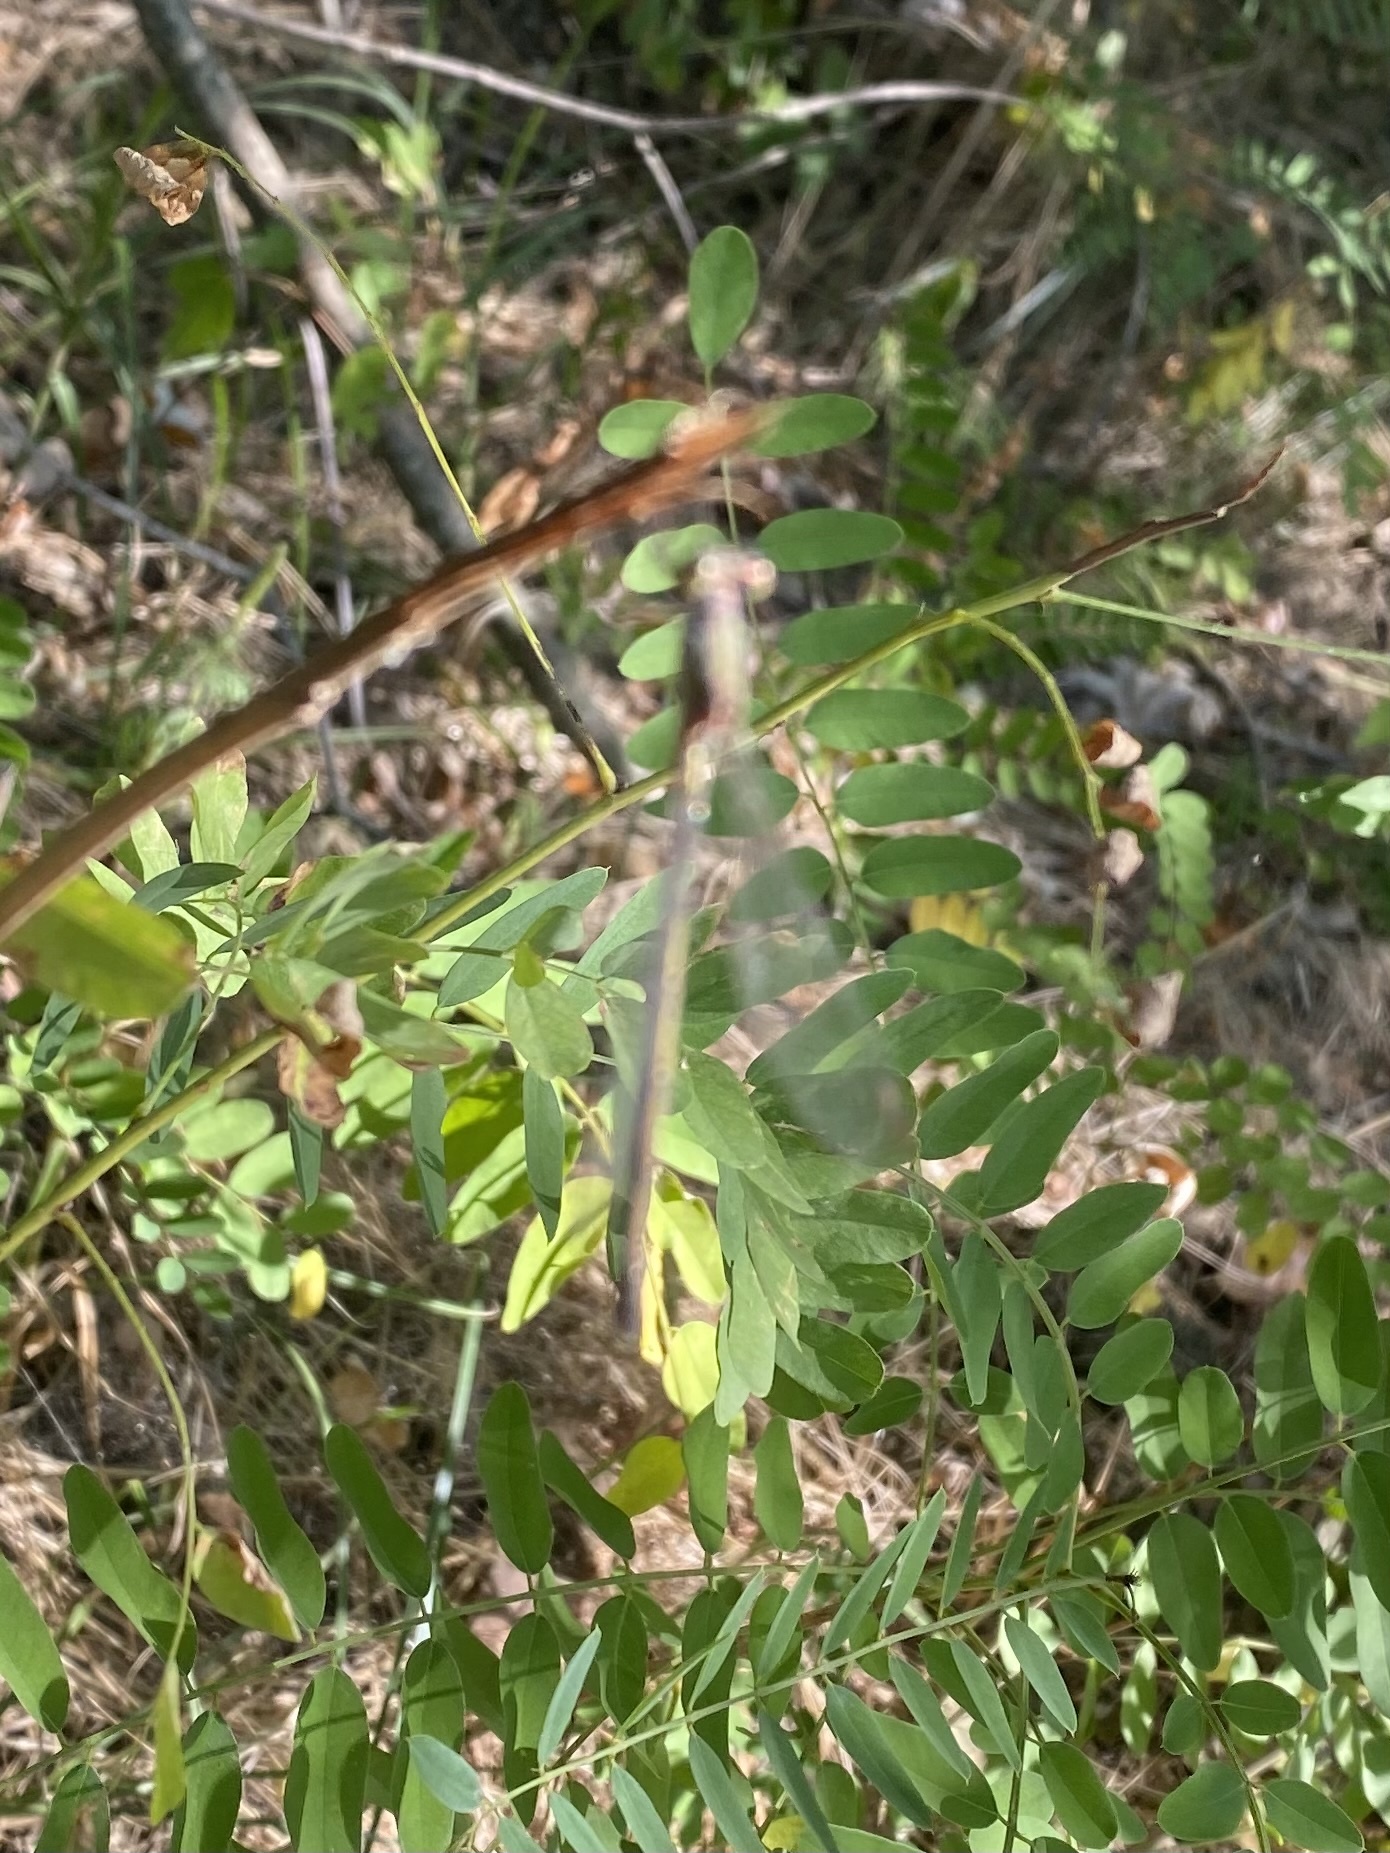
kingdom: Animalia
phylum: Arthropoda
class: Insecta
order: Odonata
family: Lestidae
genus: Chalcolestes
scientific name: Chalcolestes parvidens
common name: Eastern willow spreadwing
